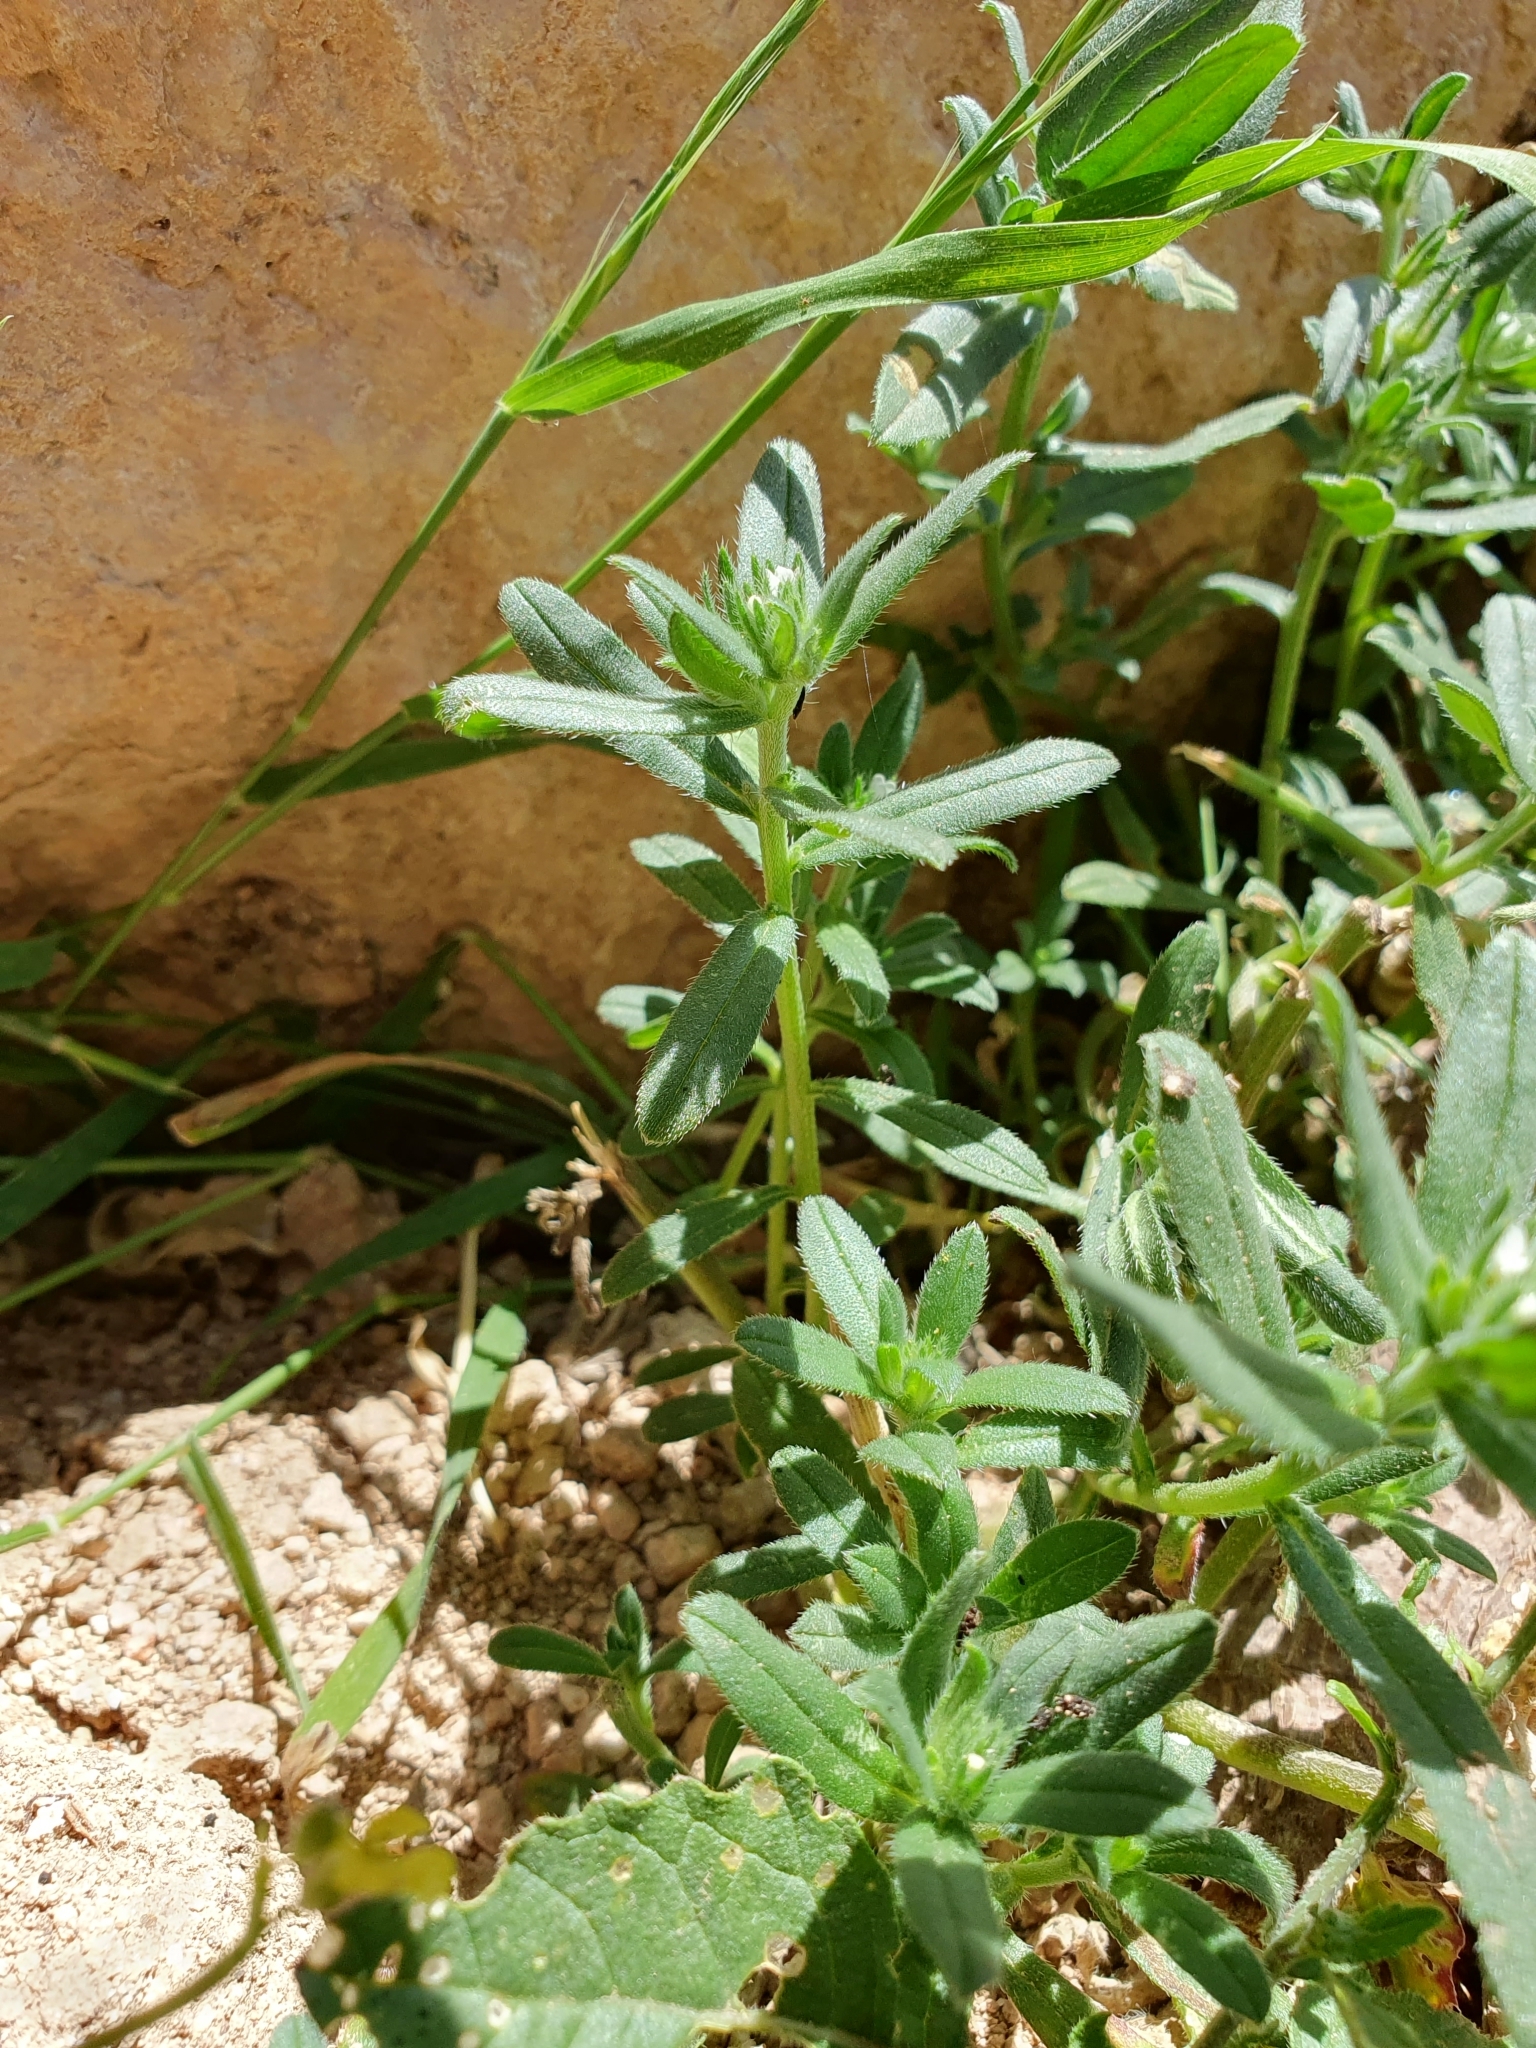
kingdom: Plantae
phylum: Tracheophyta
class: Magnoliopsida
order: Boraginales
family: Boraginaceae
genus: Buglossoides
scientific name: Buglossoides arvensis
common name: Corn gromwell
